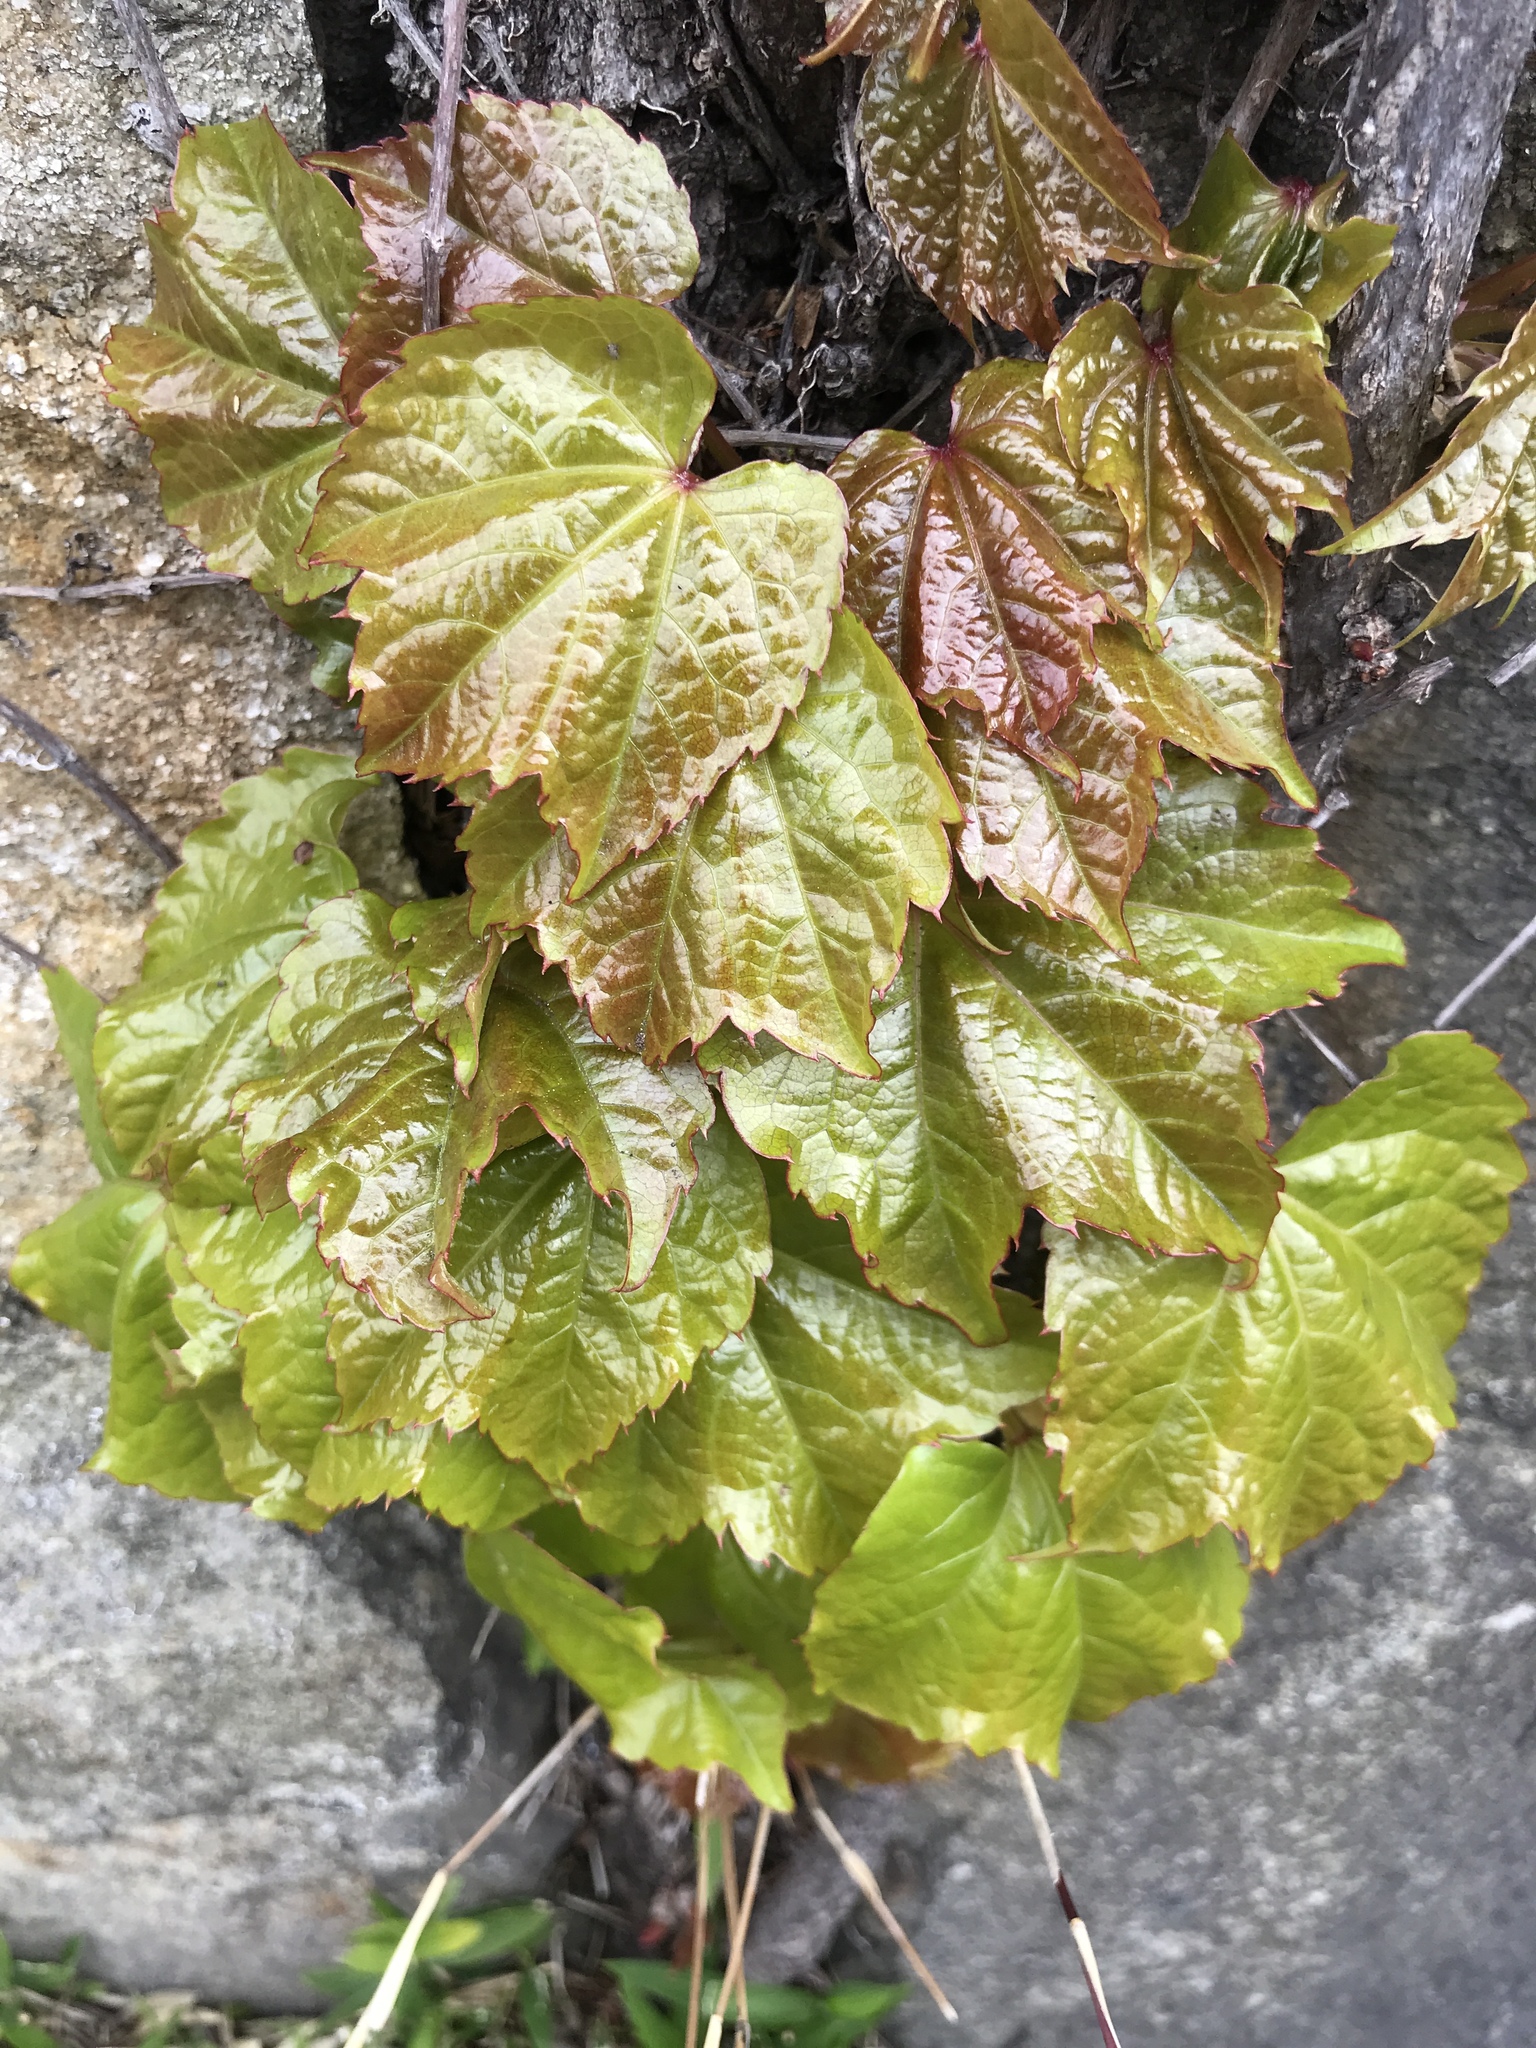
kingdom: Plantae
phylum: Tracheophyta
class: Magnoliopsida
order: Vitales
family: Vitaceae
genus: Parthenocissus
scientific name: Parthenocissus tricuspidata
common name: Boston ivy
